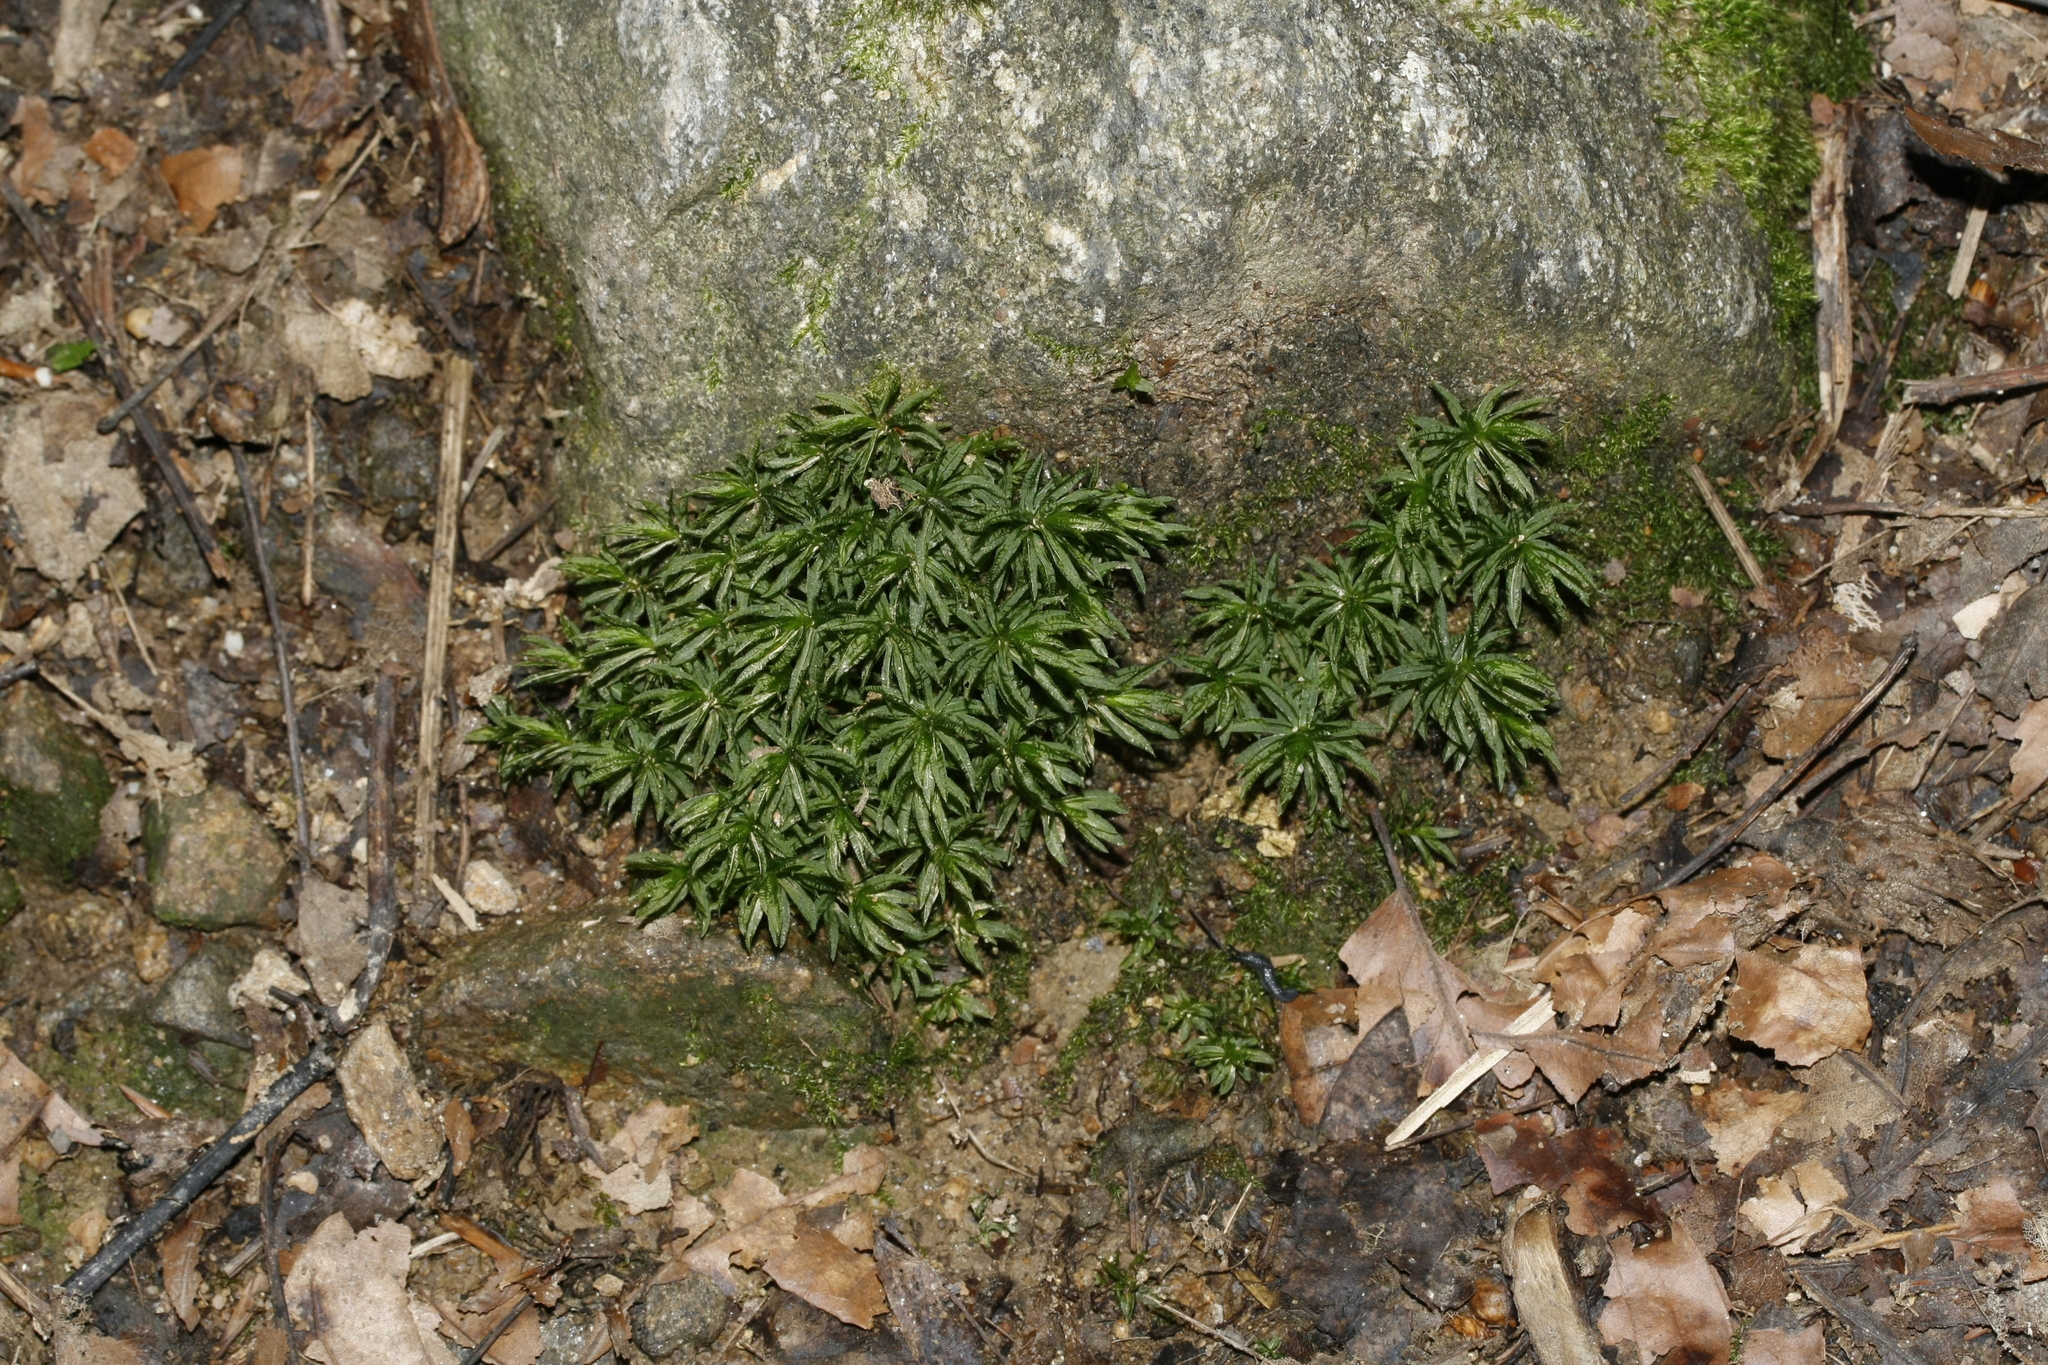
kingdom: Plantae
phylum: Bryophyta
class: Polytrichopsida
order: Polytrichales
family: Polytrichaceae
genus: Atrichum
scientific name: Atrichum undulatum
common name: Common smoothcap
